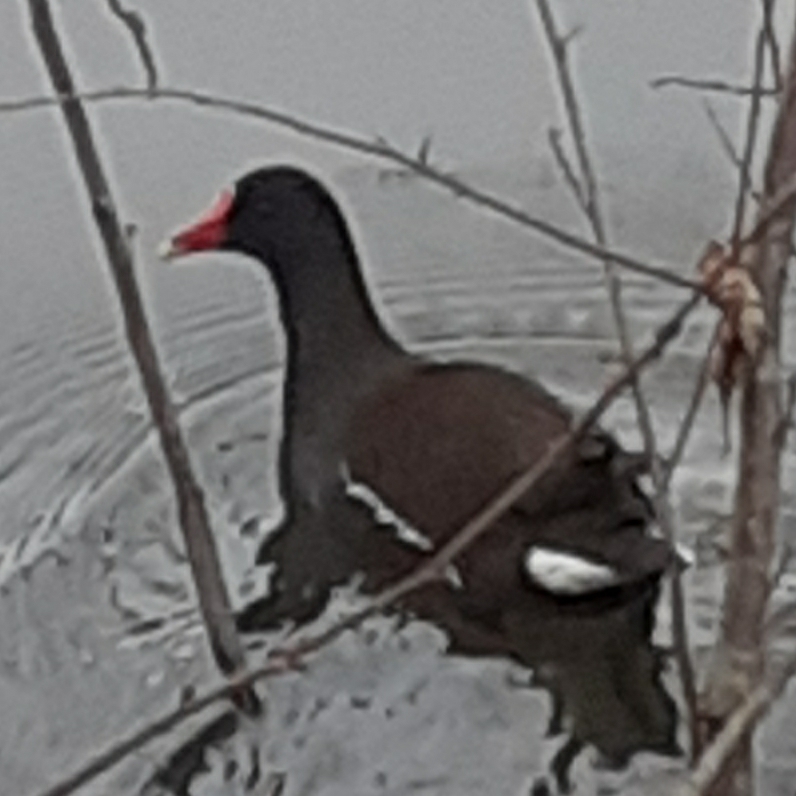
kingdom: Animalia
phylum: Chordata
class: Aves
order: Gruiformes
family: Rallidae
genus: Gallinula
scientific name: Gallinula chloropus
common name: Common moorhen
